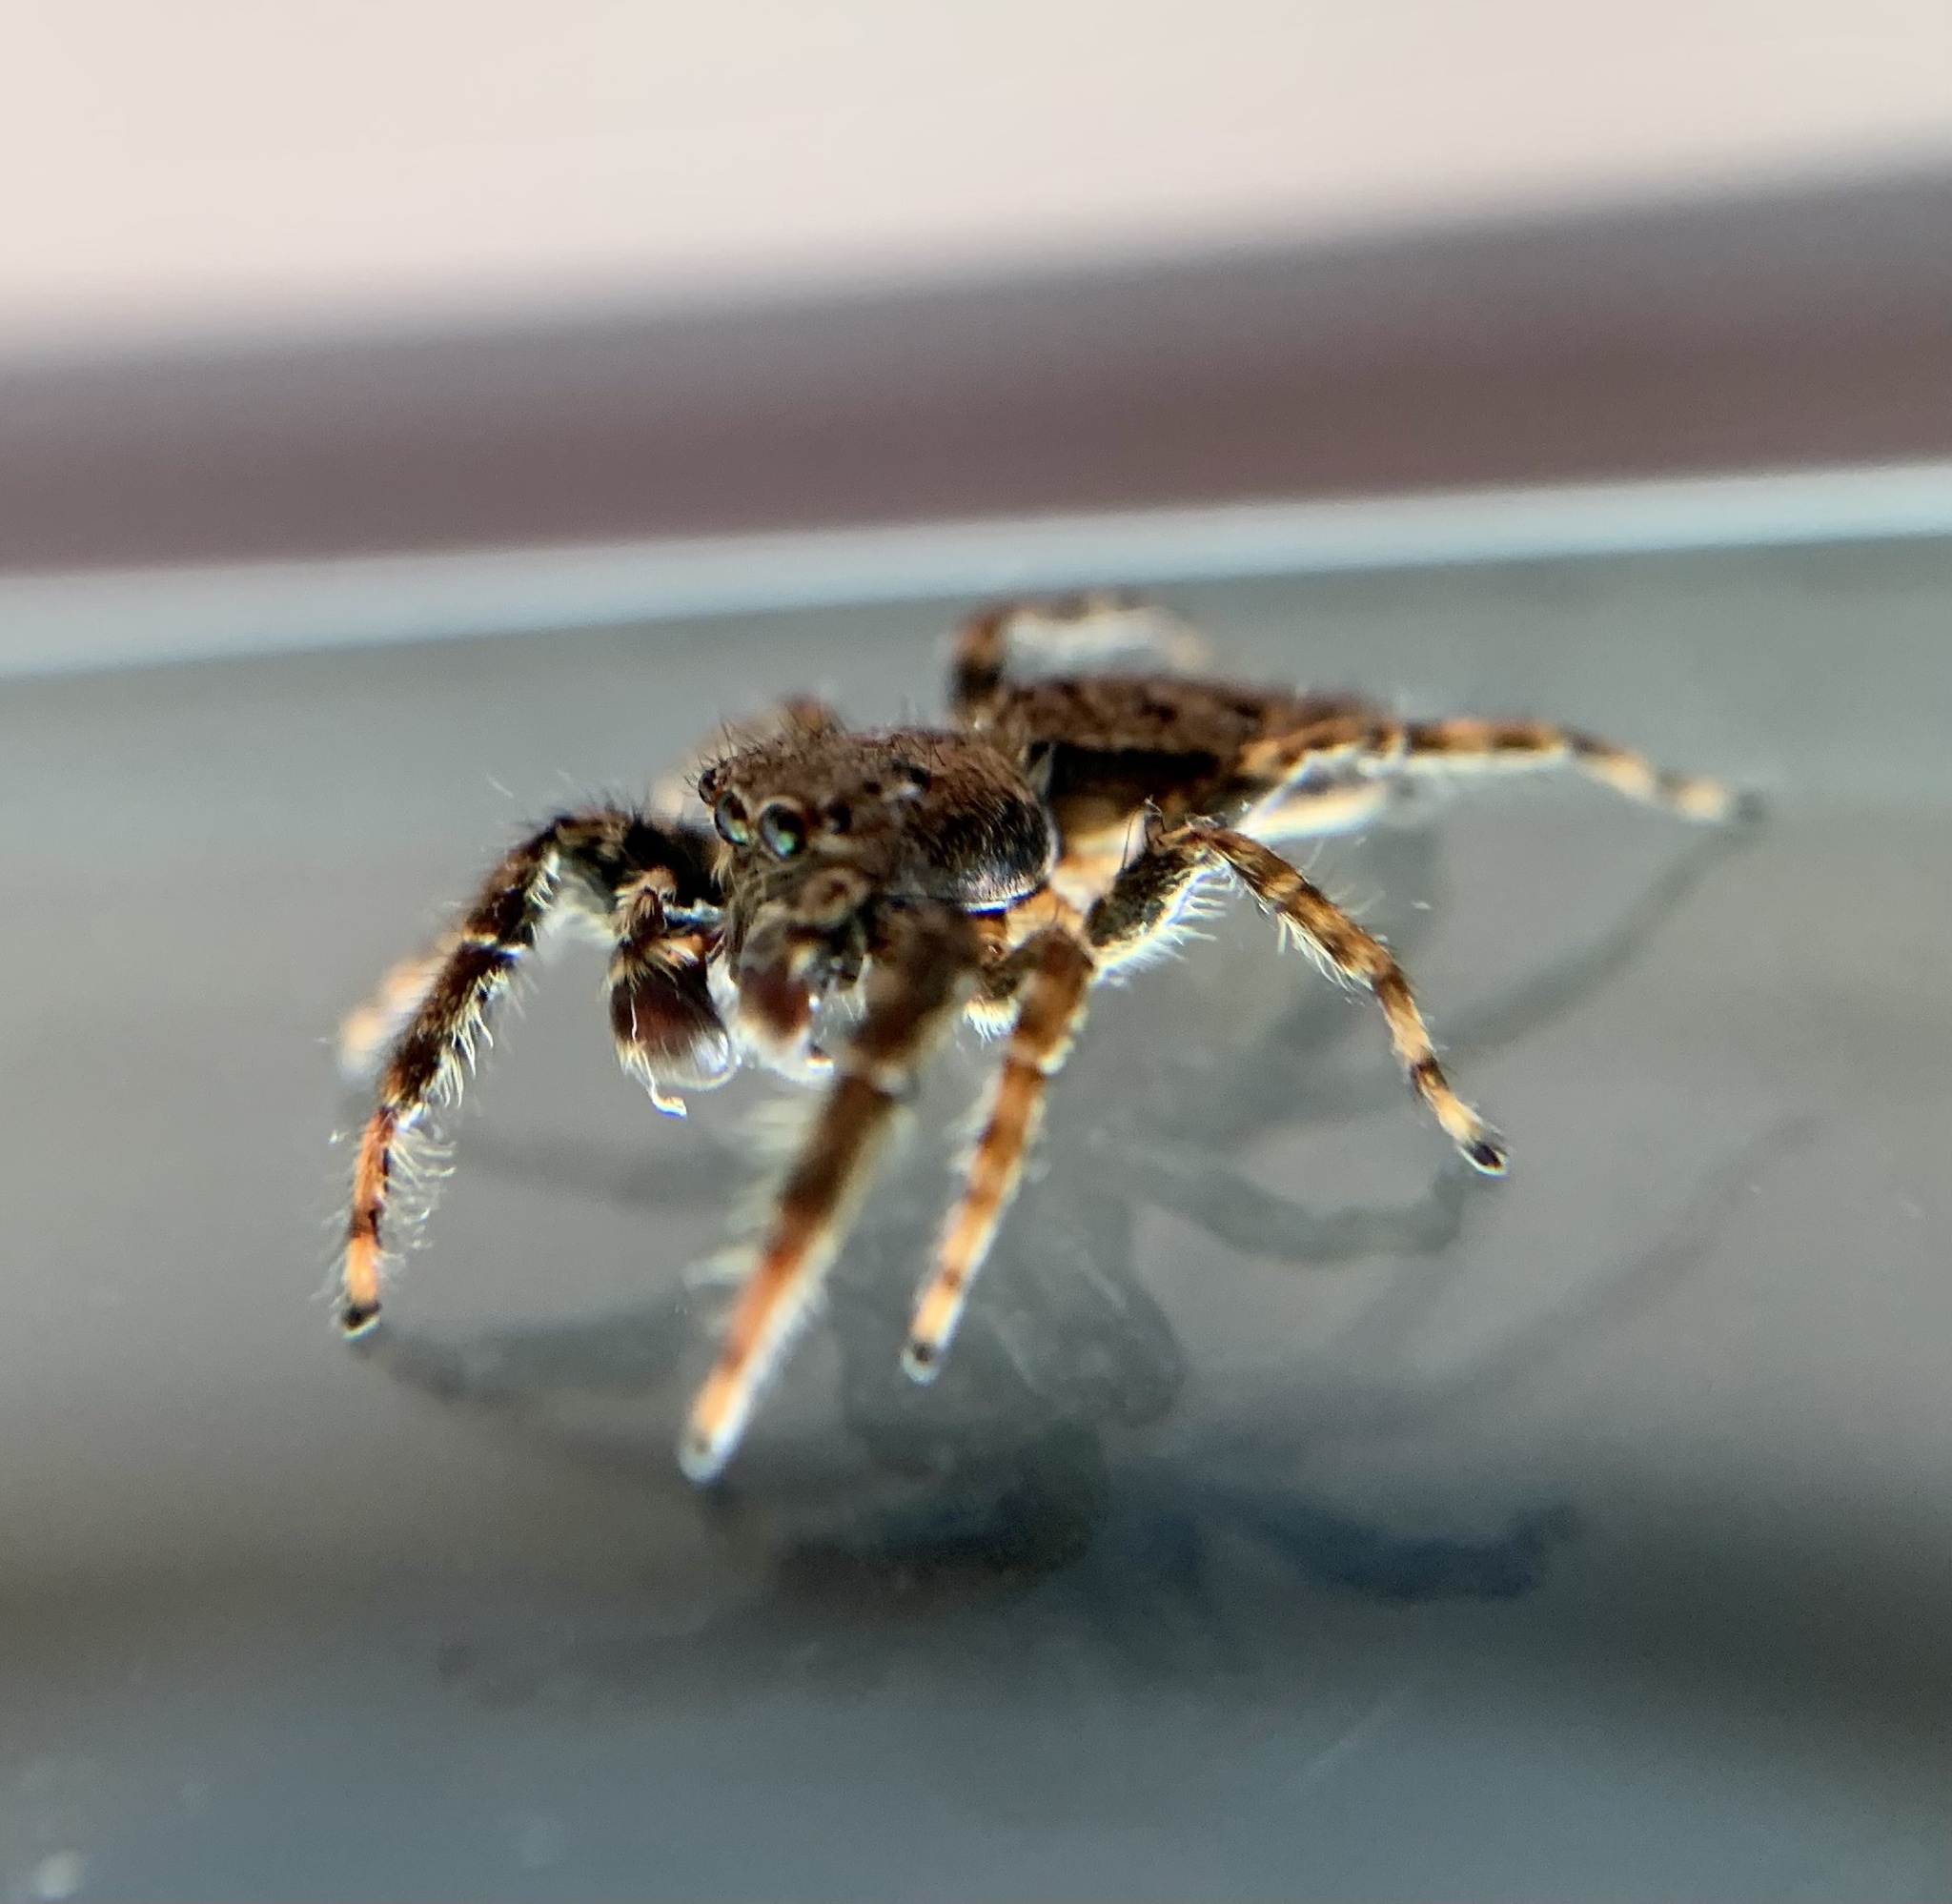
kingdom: Animalia
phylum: Arthropoda
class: Arachnida
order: Araneae
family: Salticidae
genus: Marpissa
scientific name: Marpissa muscosa
